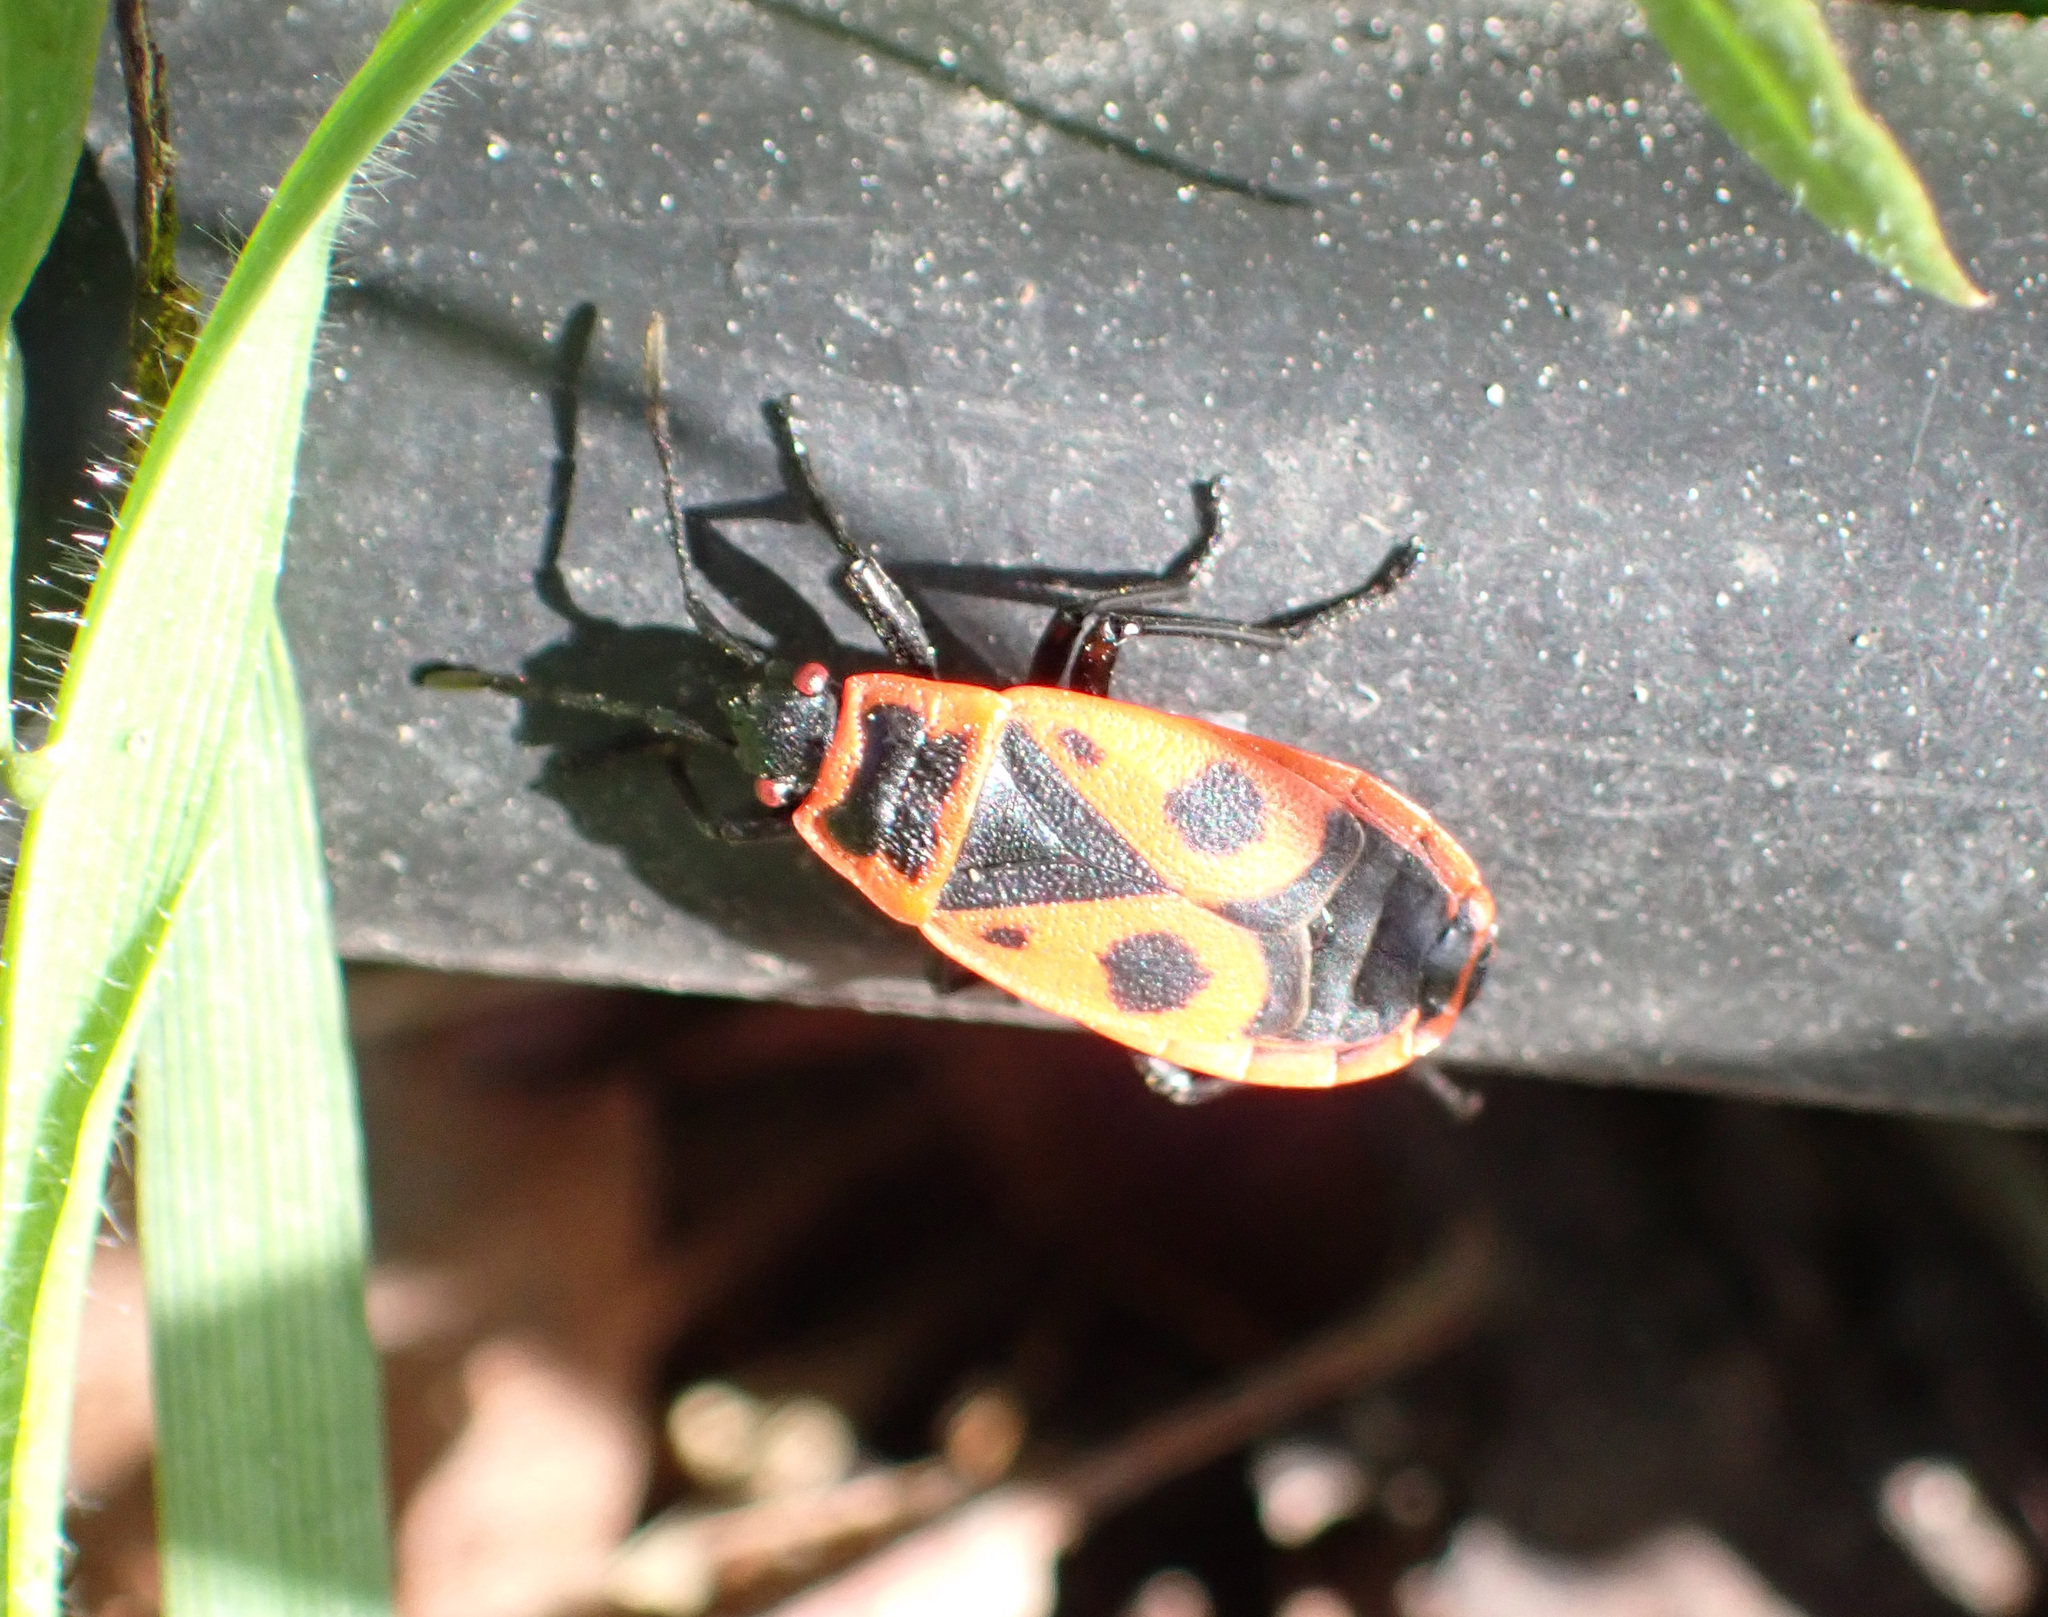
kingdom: Animalia
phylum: Arthropoda
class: Insecta
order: Hemiptera
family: Pyrrhocoridae
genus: Pyrrhocoris
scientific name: Pyrrhocoris apterus
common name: Firebug
